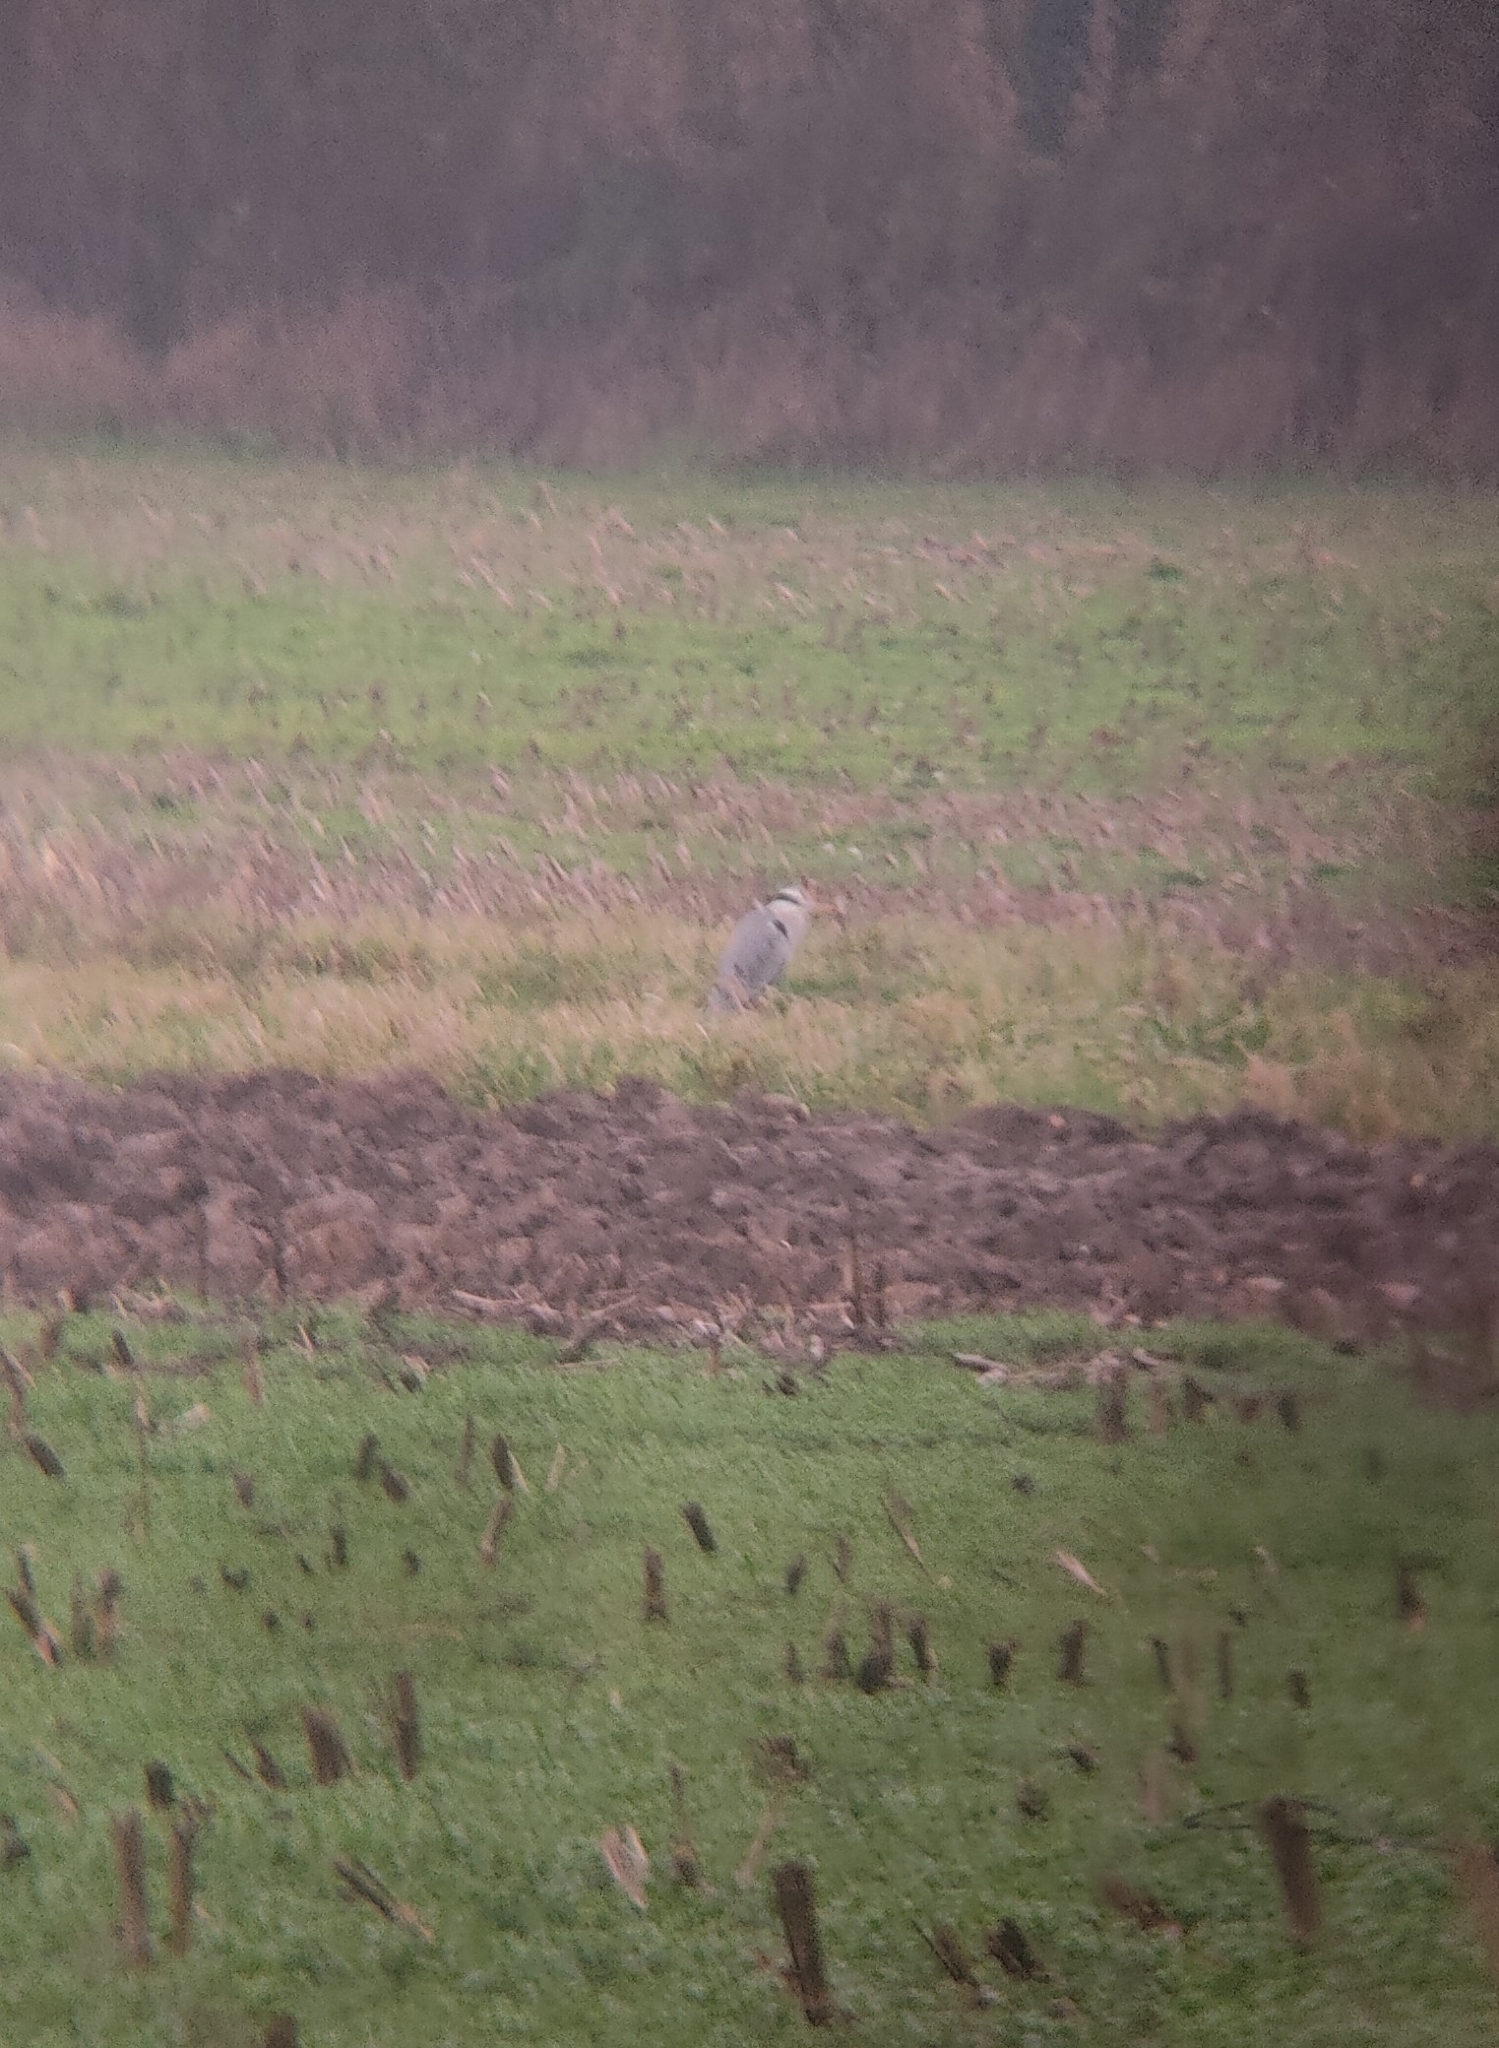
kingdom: Animalia
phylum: Chordata
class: Aves
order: Pelecaniformes
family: Ardeidae
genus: Ardea
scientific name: Ardea cinerea
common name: Grey heron
